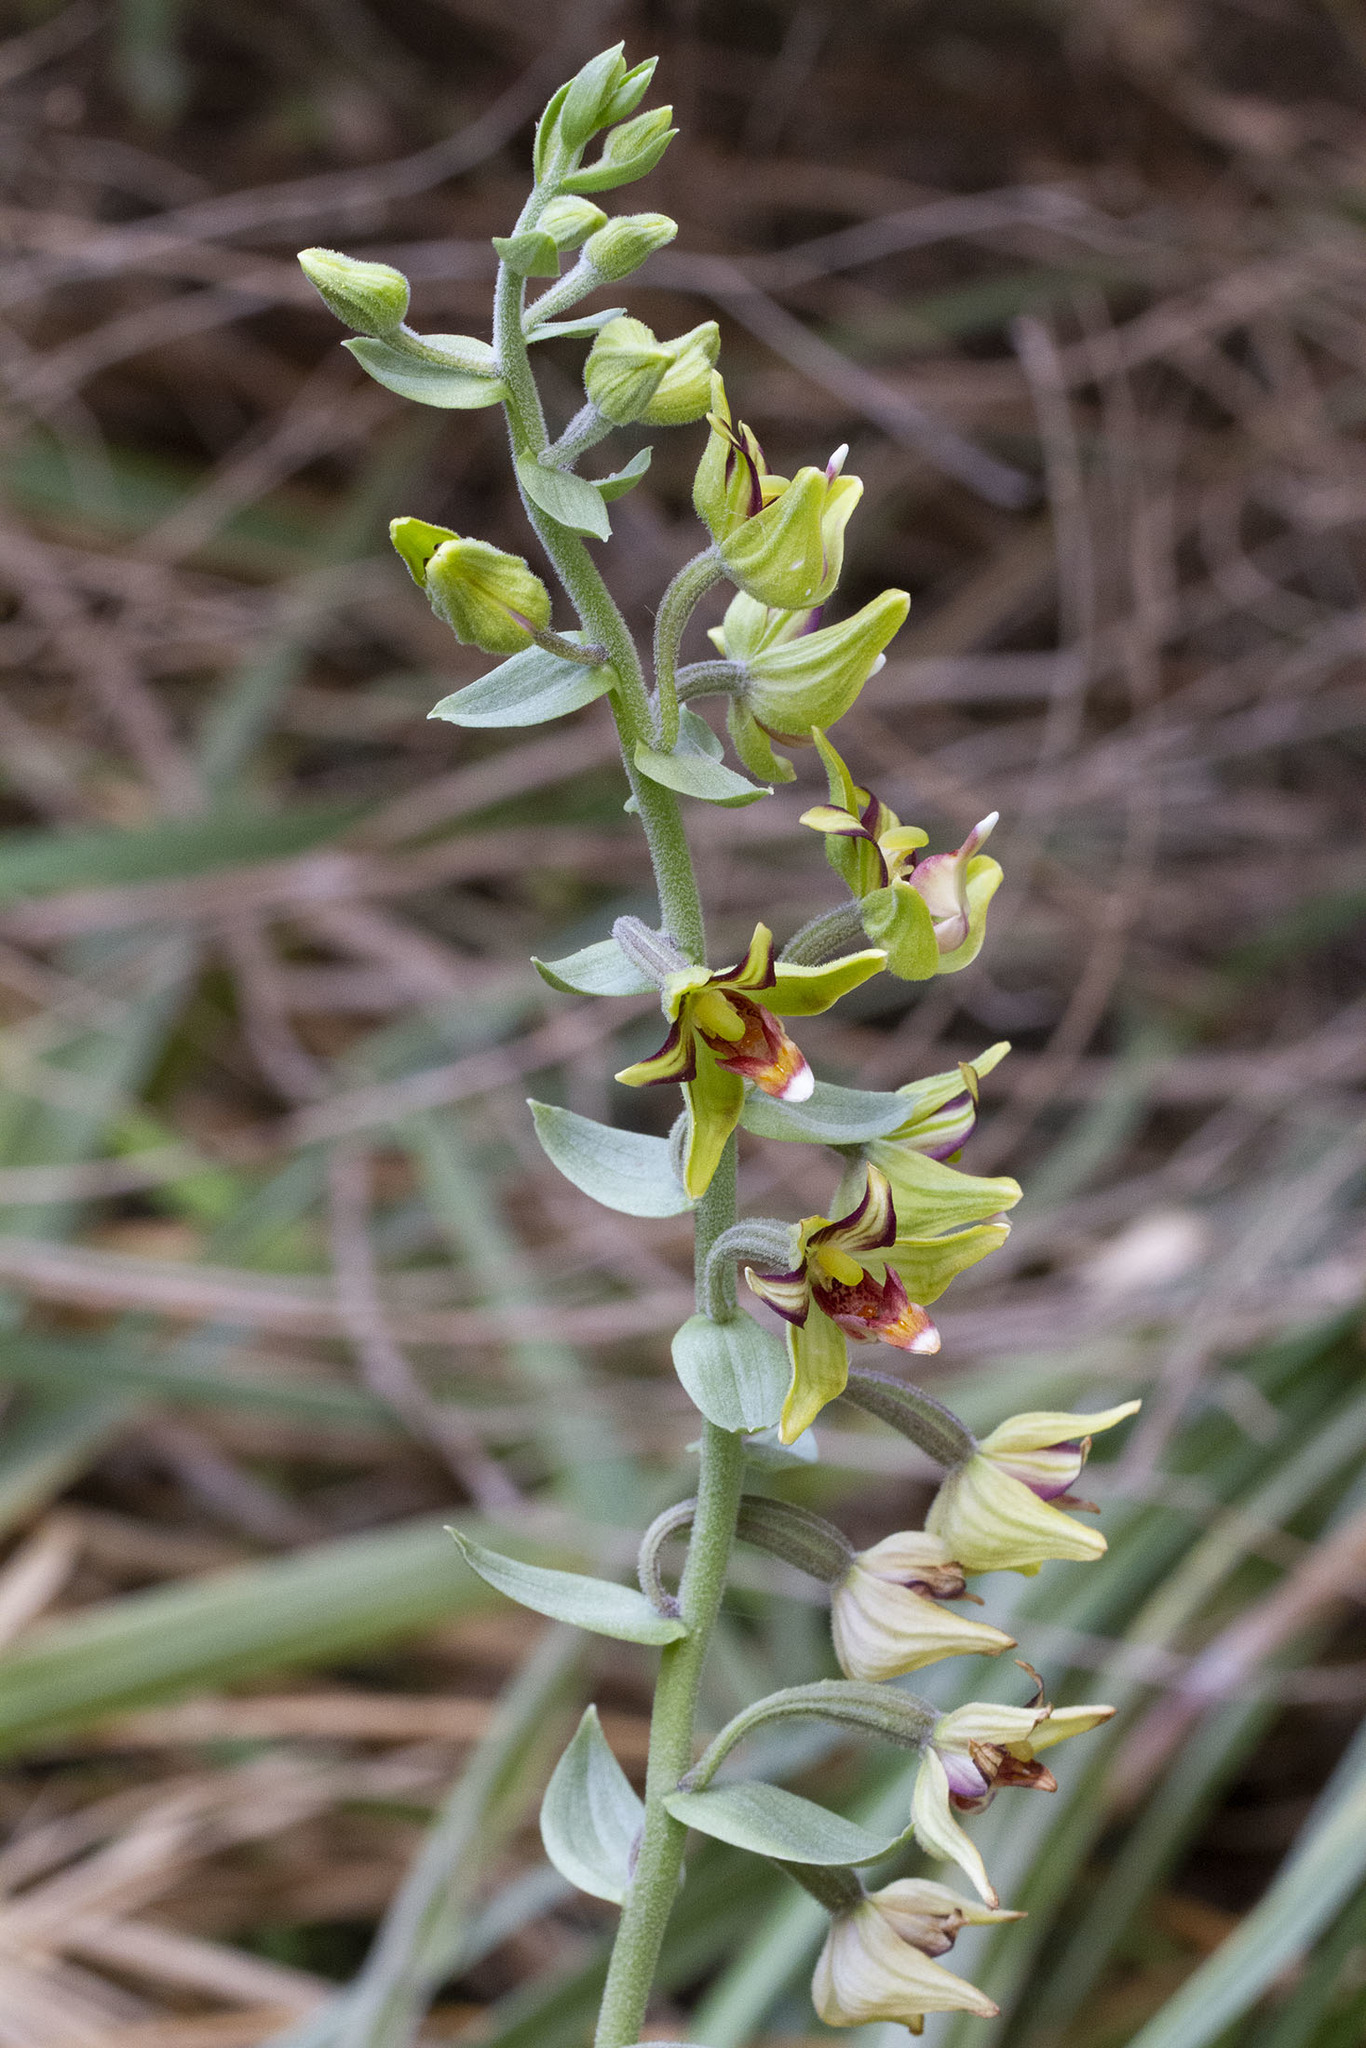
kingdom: Plantae
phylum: Tracheophyta
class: Liliopsida
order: Asparagales
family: Orchidaceae
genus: Epipactis
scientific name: Epipactis veratrifolia
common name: Eastern marsh helleborine
